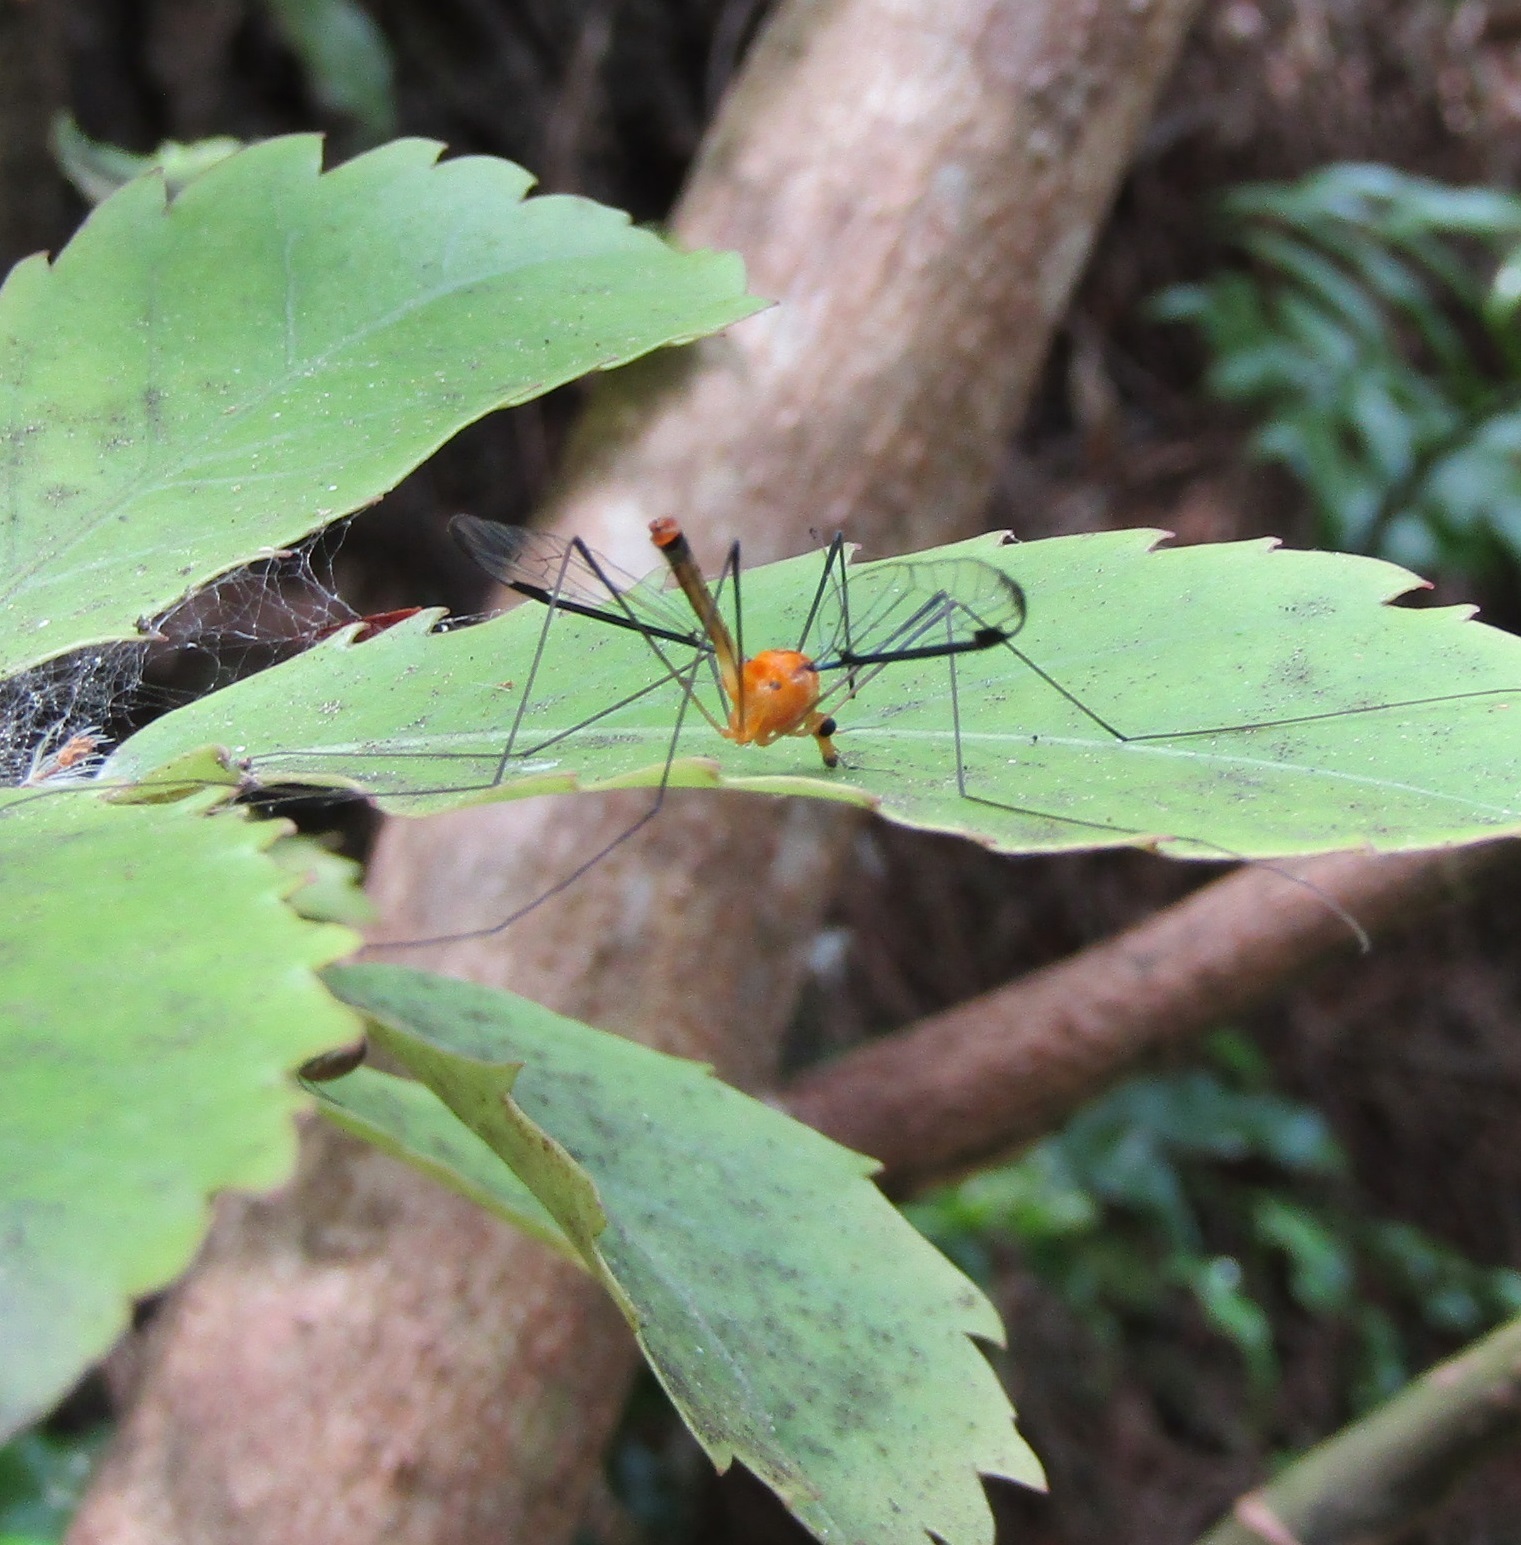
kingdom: Animalia
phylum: Arthropoda
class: Insecta
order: Diptera
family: Tipulidae
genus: Aurotipula
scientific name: Aurotipula
